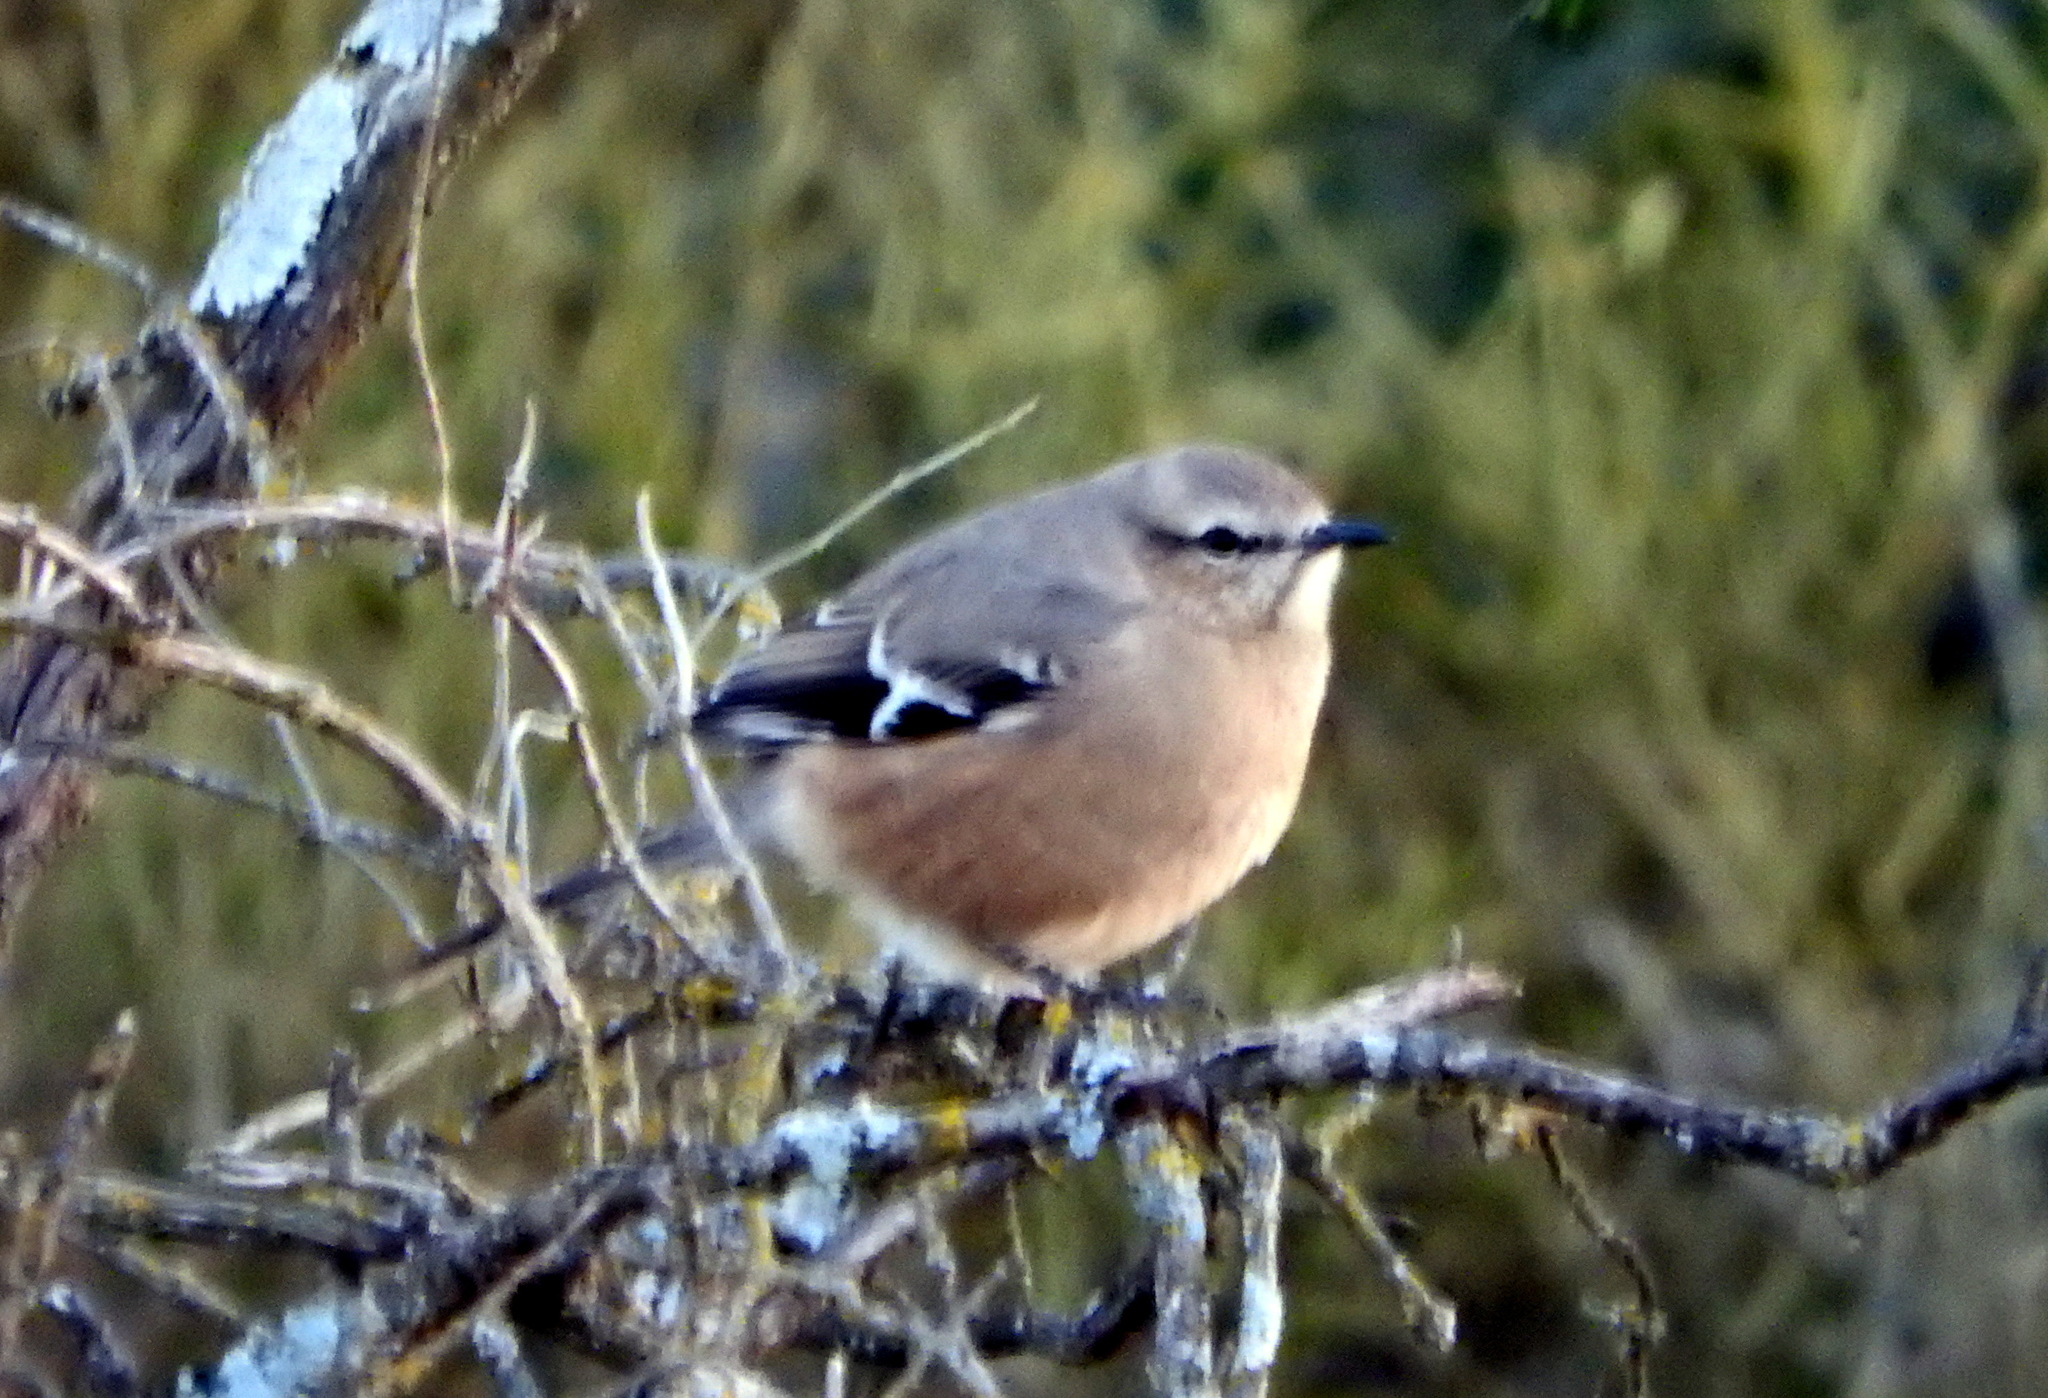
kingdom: Animalia
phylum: Chordata
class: Aves
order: Passeriformes
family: Mimidae
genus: Mimus
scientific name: Mimus patagonicus
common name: Patagonian mockingbird
